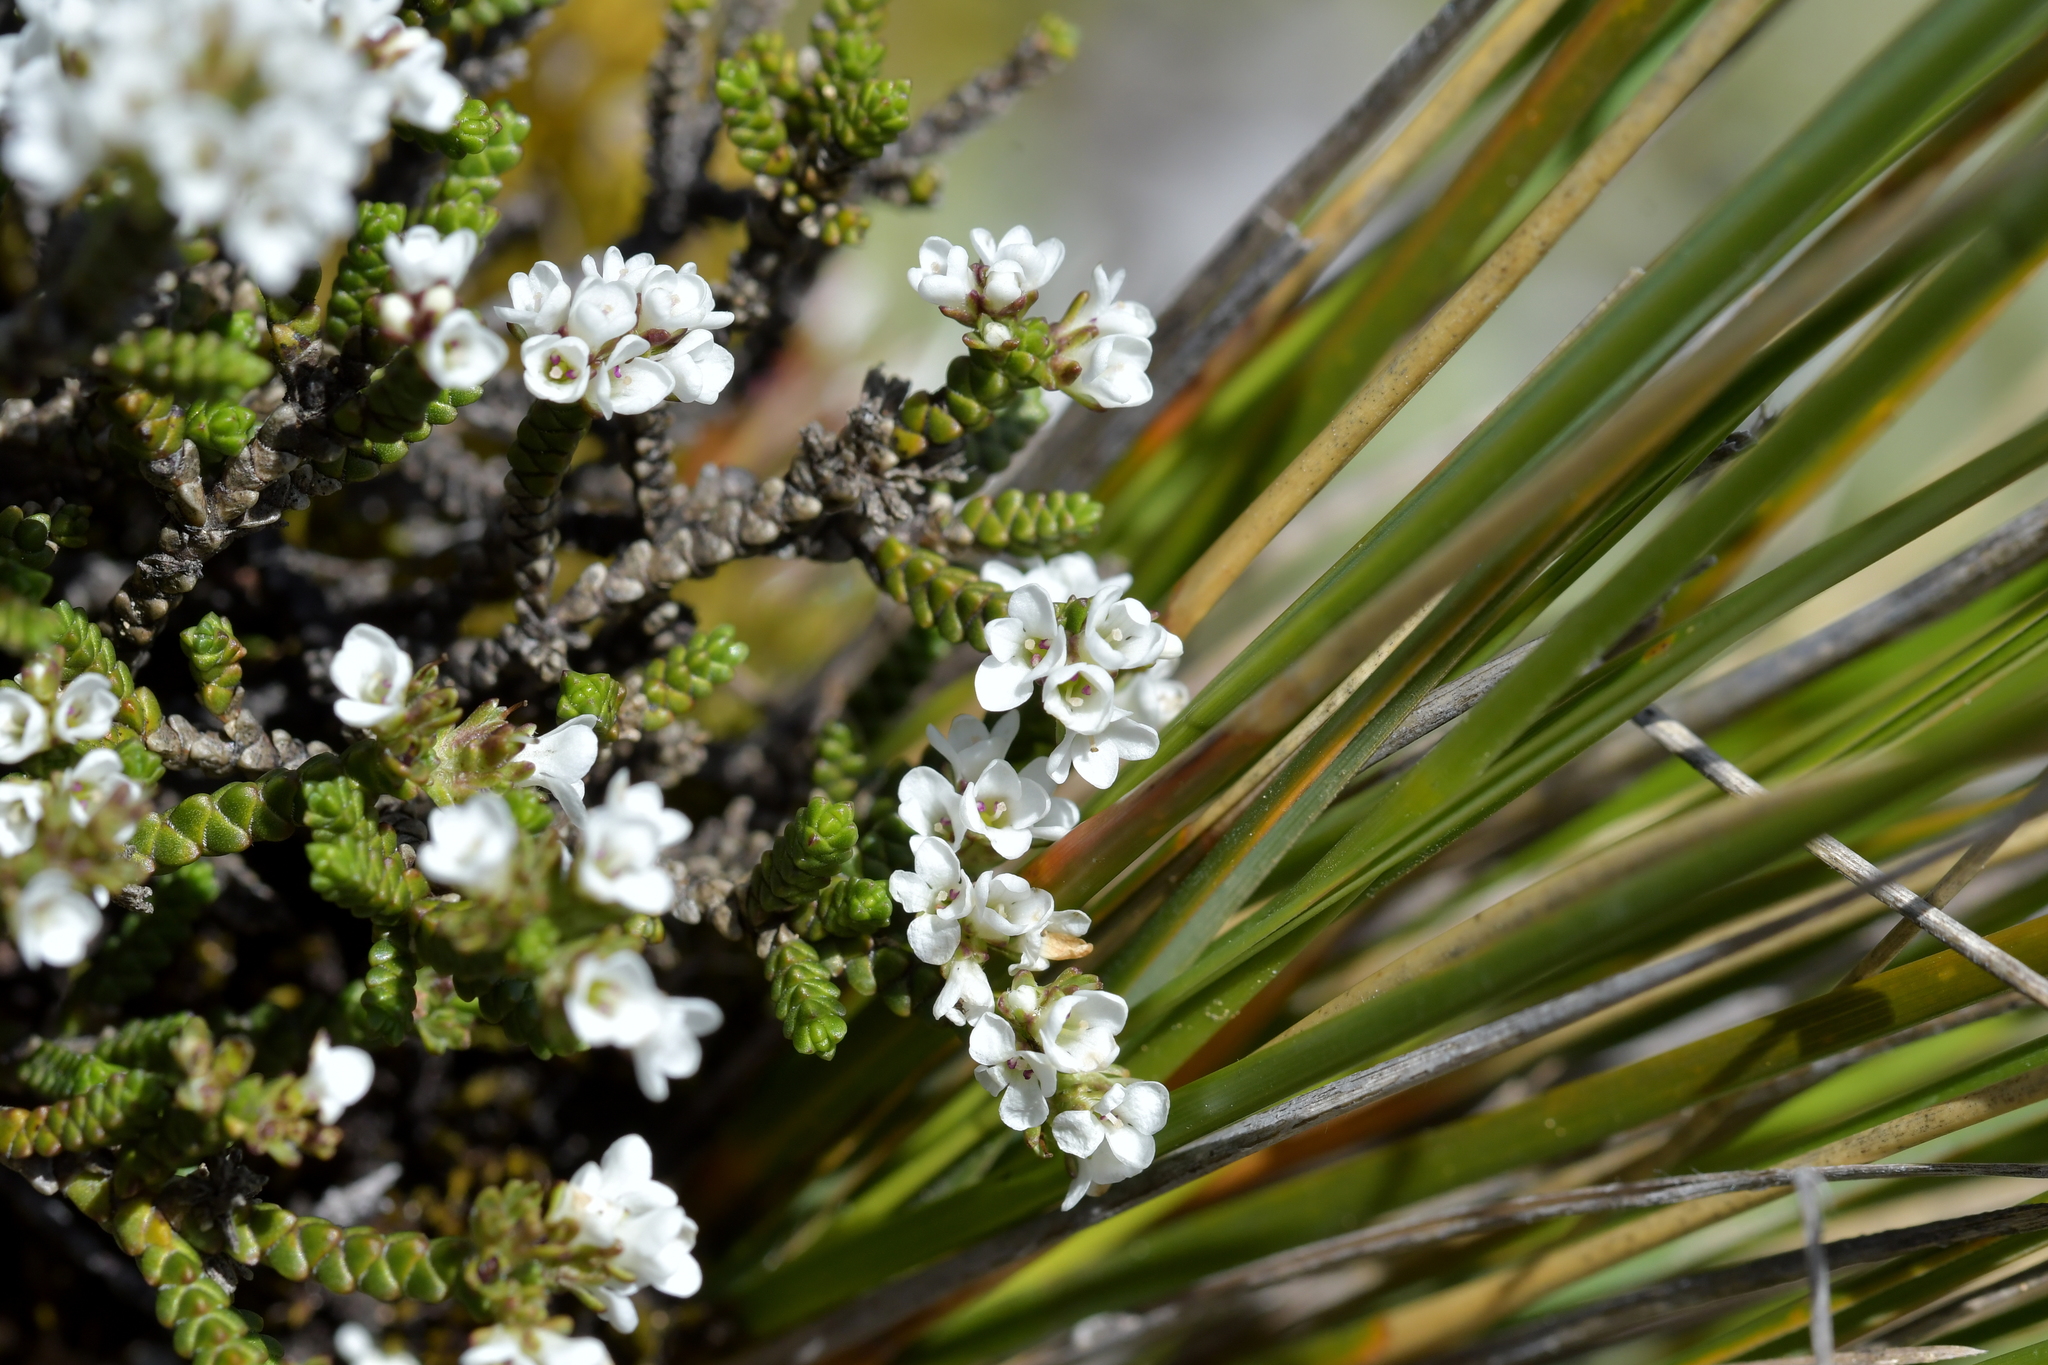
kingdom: Plantae
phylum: Tracheophyta
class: Magnoliopsida
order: Lamiales
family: Plantaginaceae
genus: Veronica
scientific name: Veronica tumida
